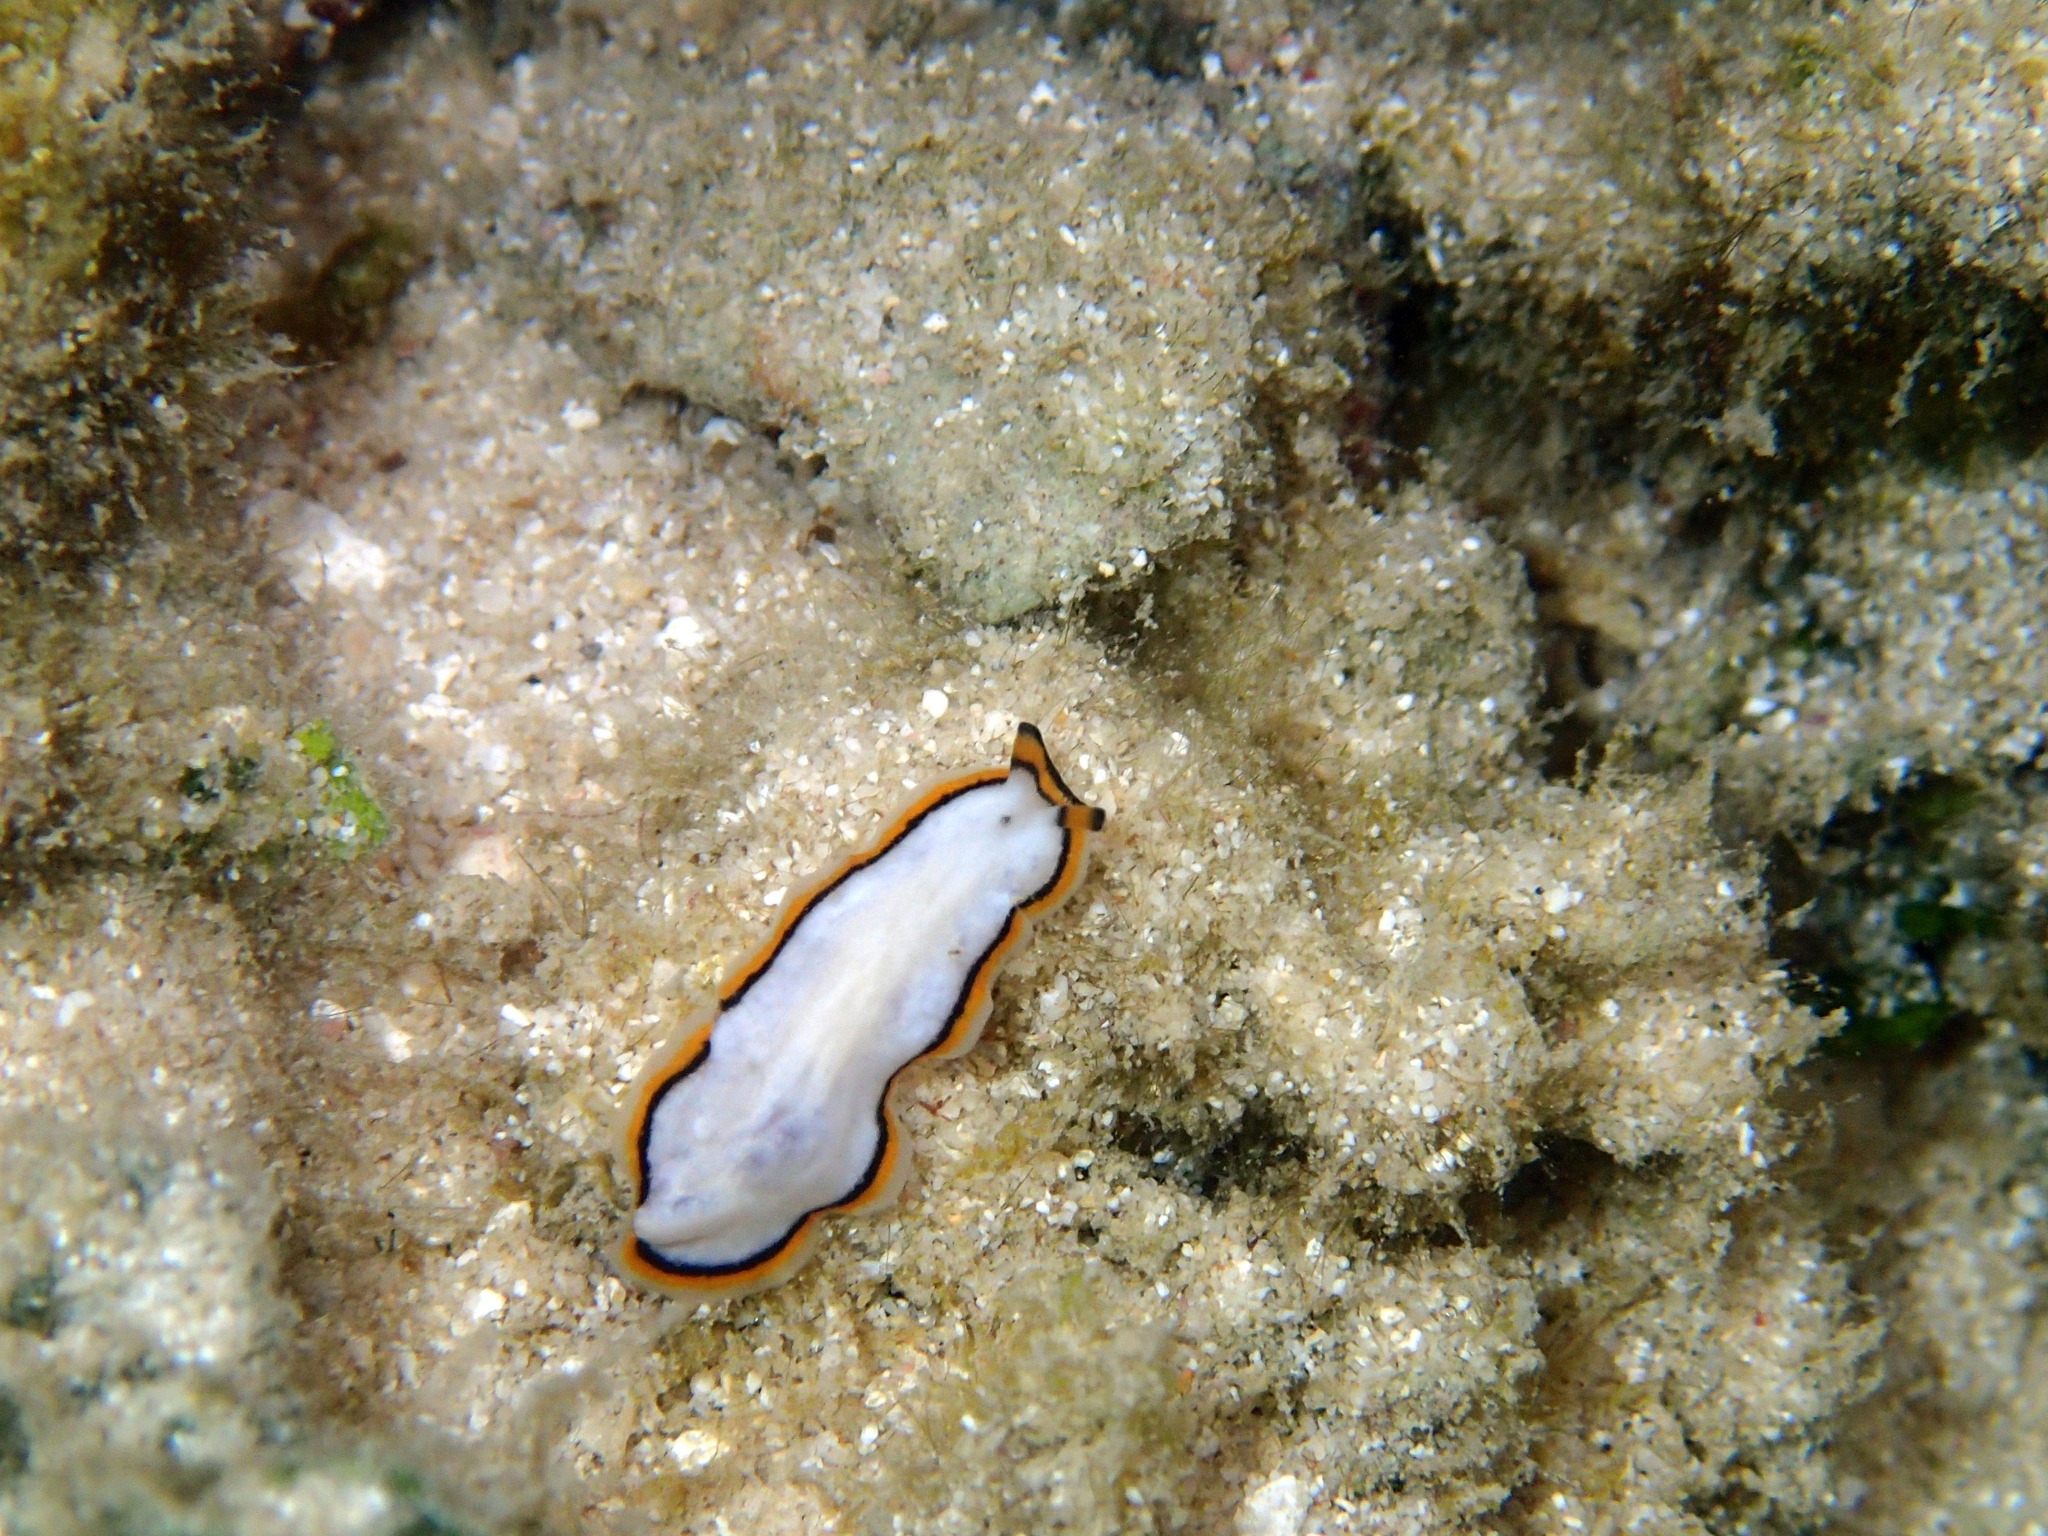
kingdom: Animalia
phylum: Platyhelminthes
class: Turbellaria
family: Pseudocerotidae
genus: Pseudoceros
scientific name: Pseudoceros meenae
